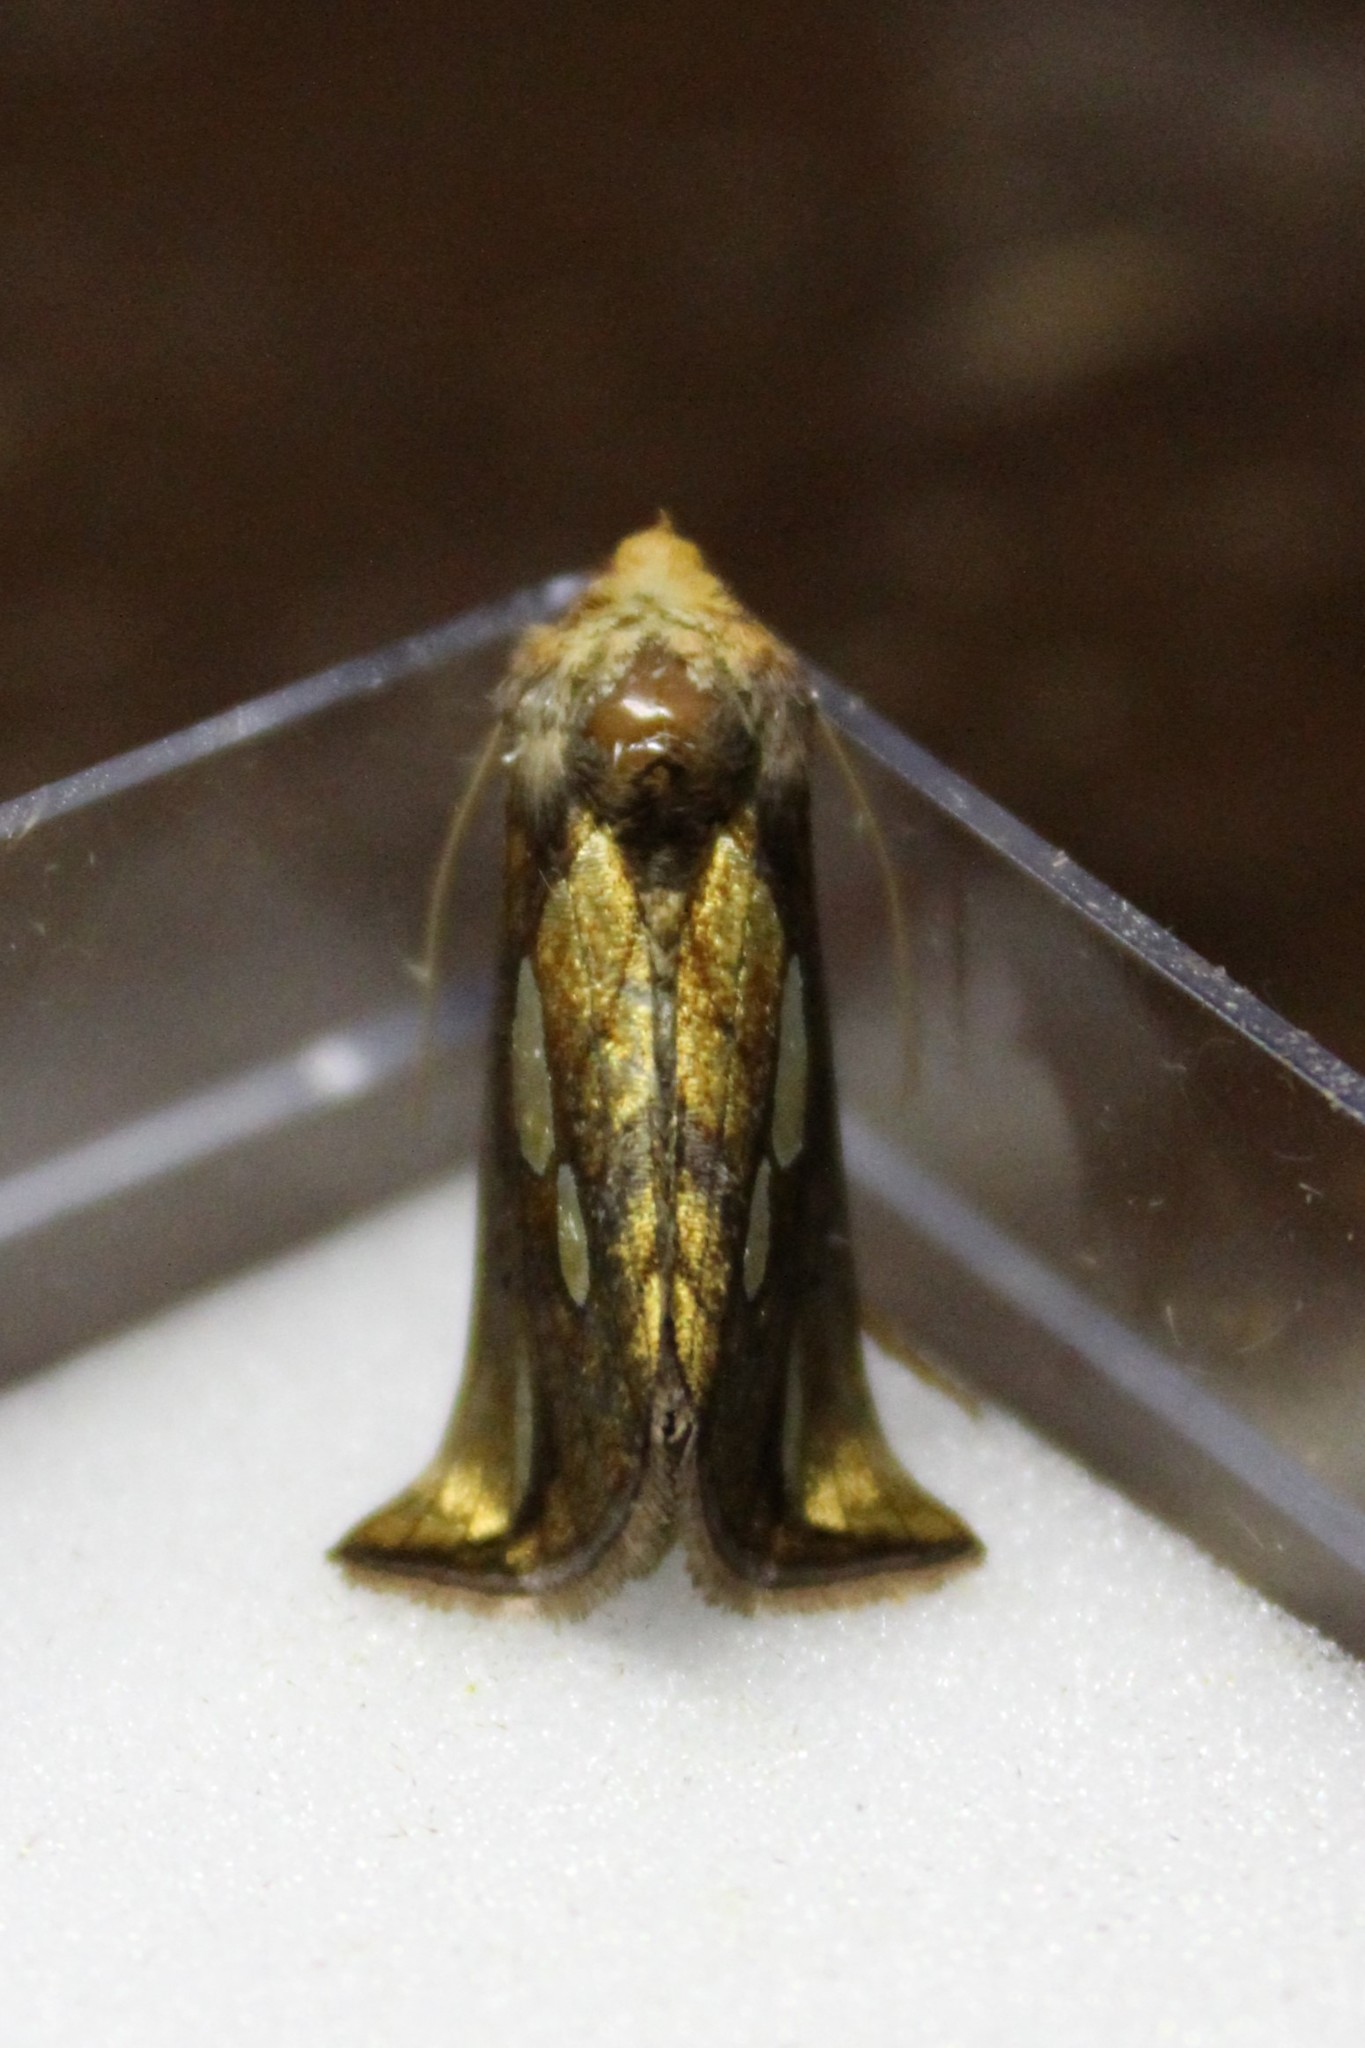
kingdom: Animalia
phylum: Arthropoda
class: Insecta
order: Lepidoptera
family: Noctuidae
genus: Plusia
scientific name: Plusia festucae
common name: Gold spot
